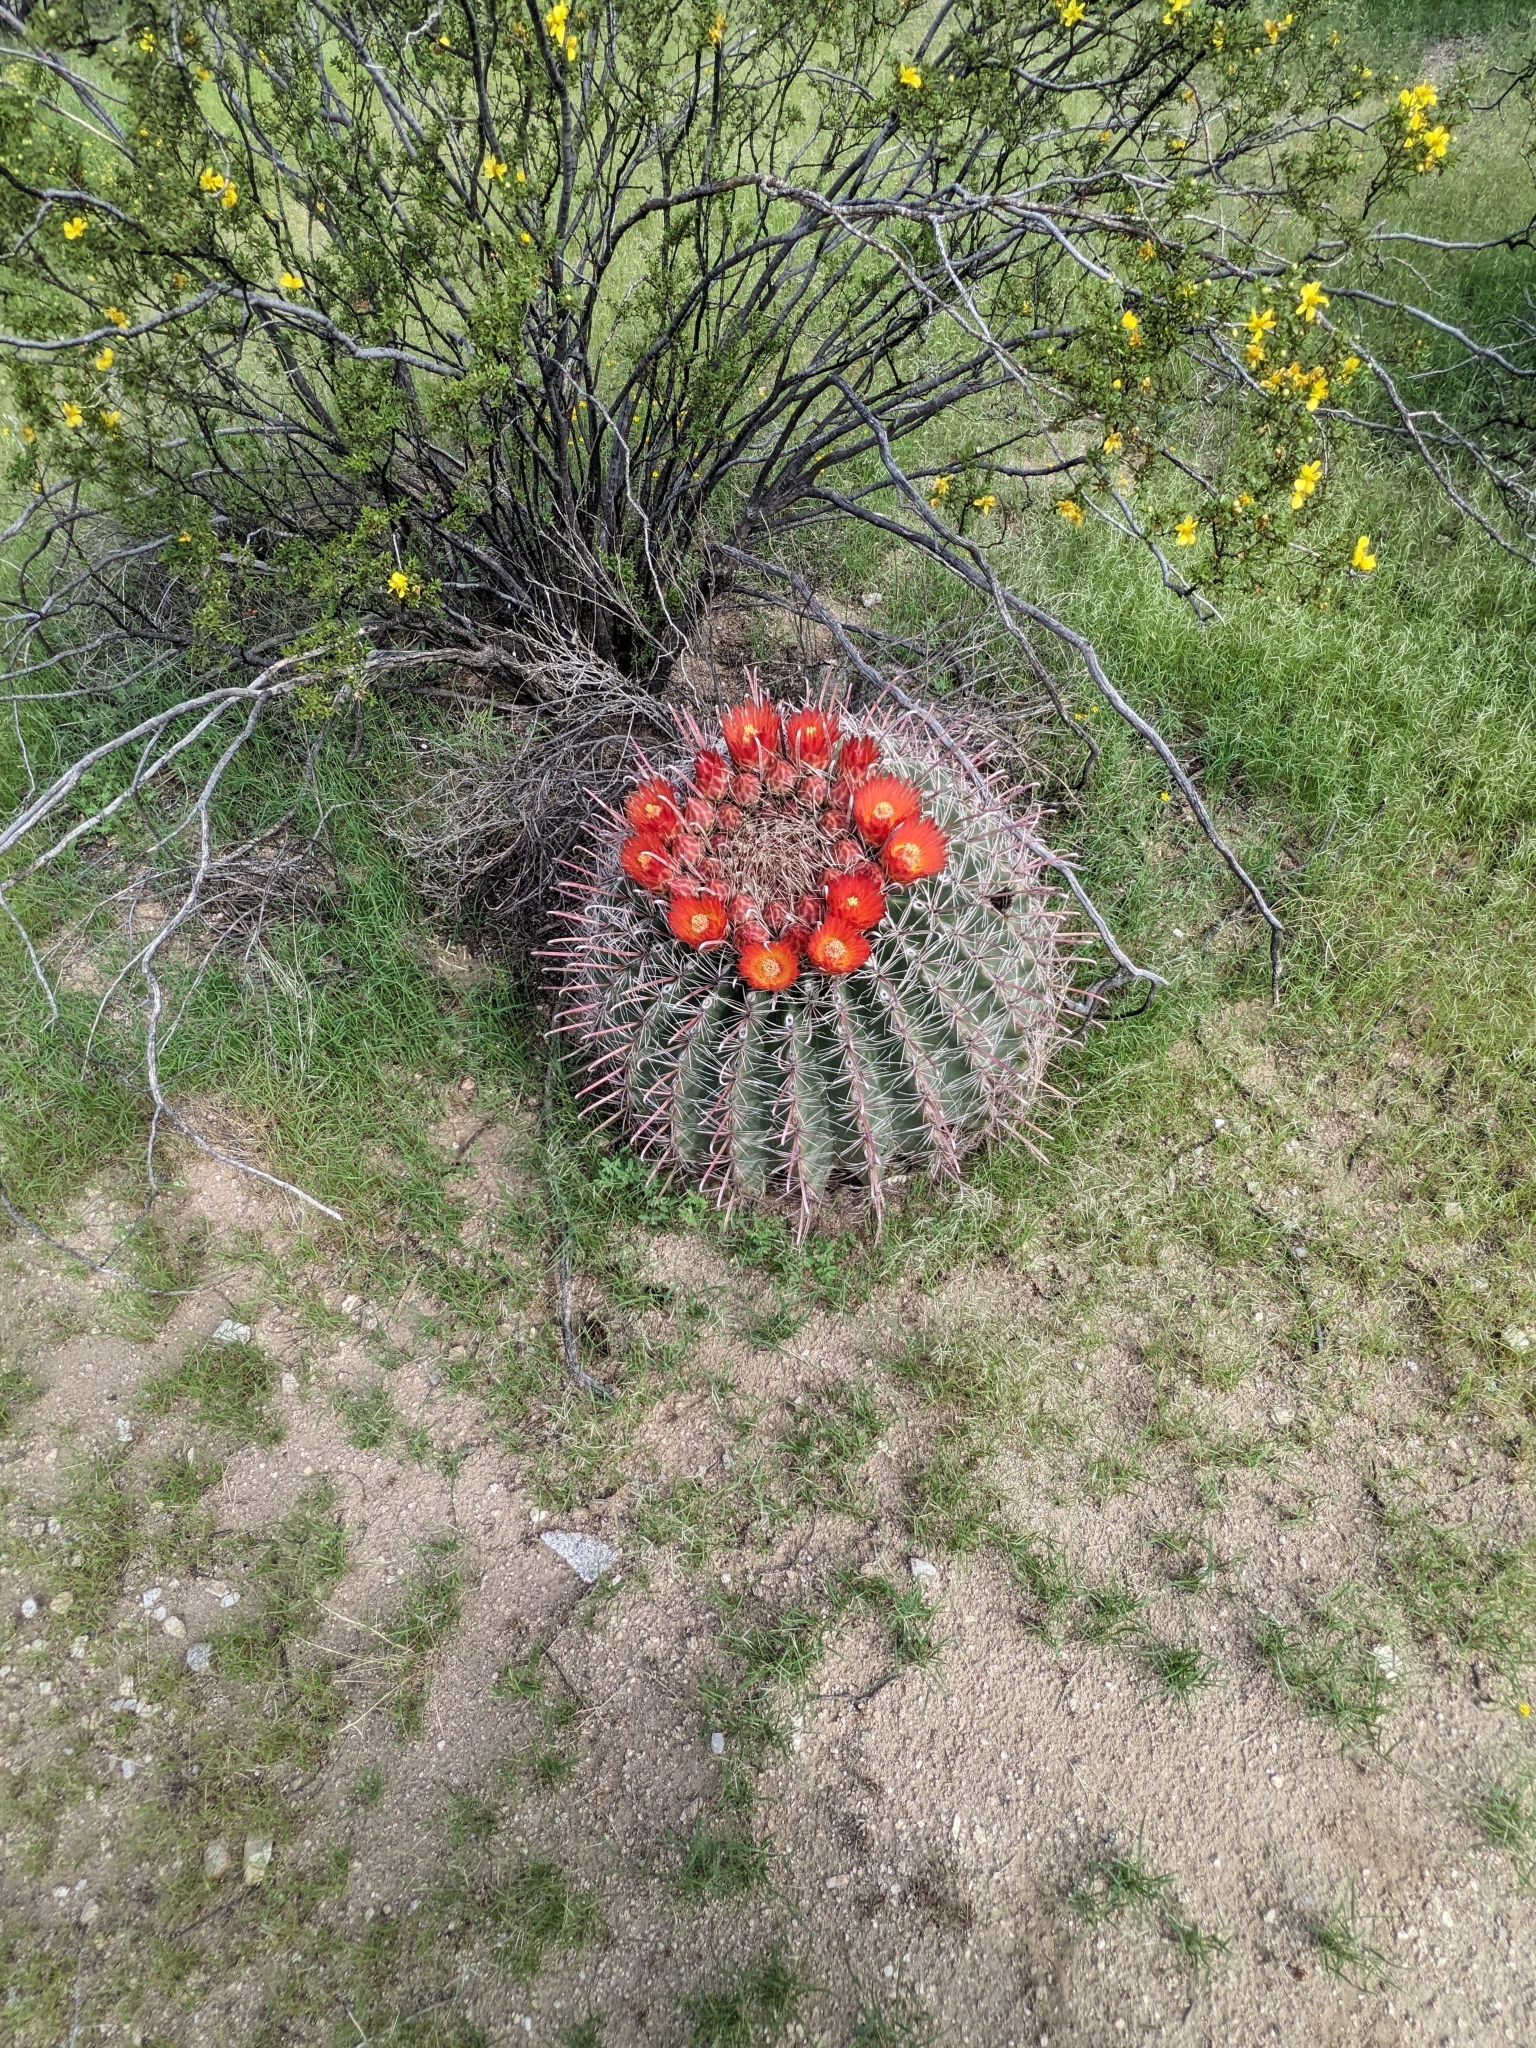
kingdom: Plantae
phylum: Tracheophyta
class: Magnoliopsida
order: Caryophyllales
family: Cactaceae
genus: Ferocactus
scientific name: Ferocactus wislizeni
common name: Candy barrel cactus
